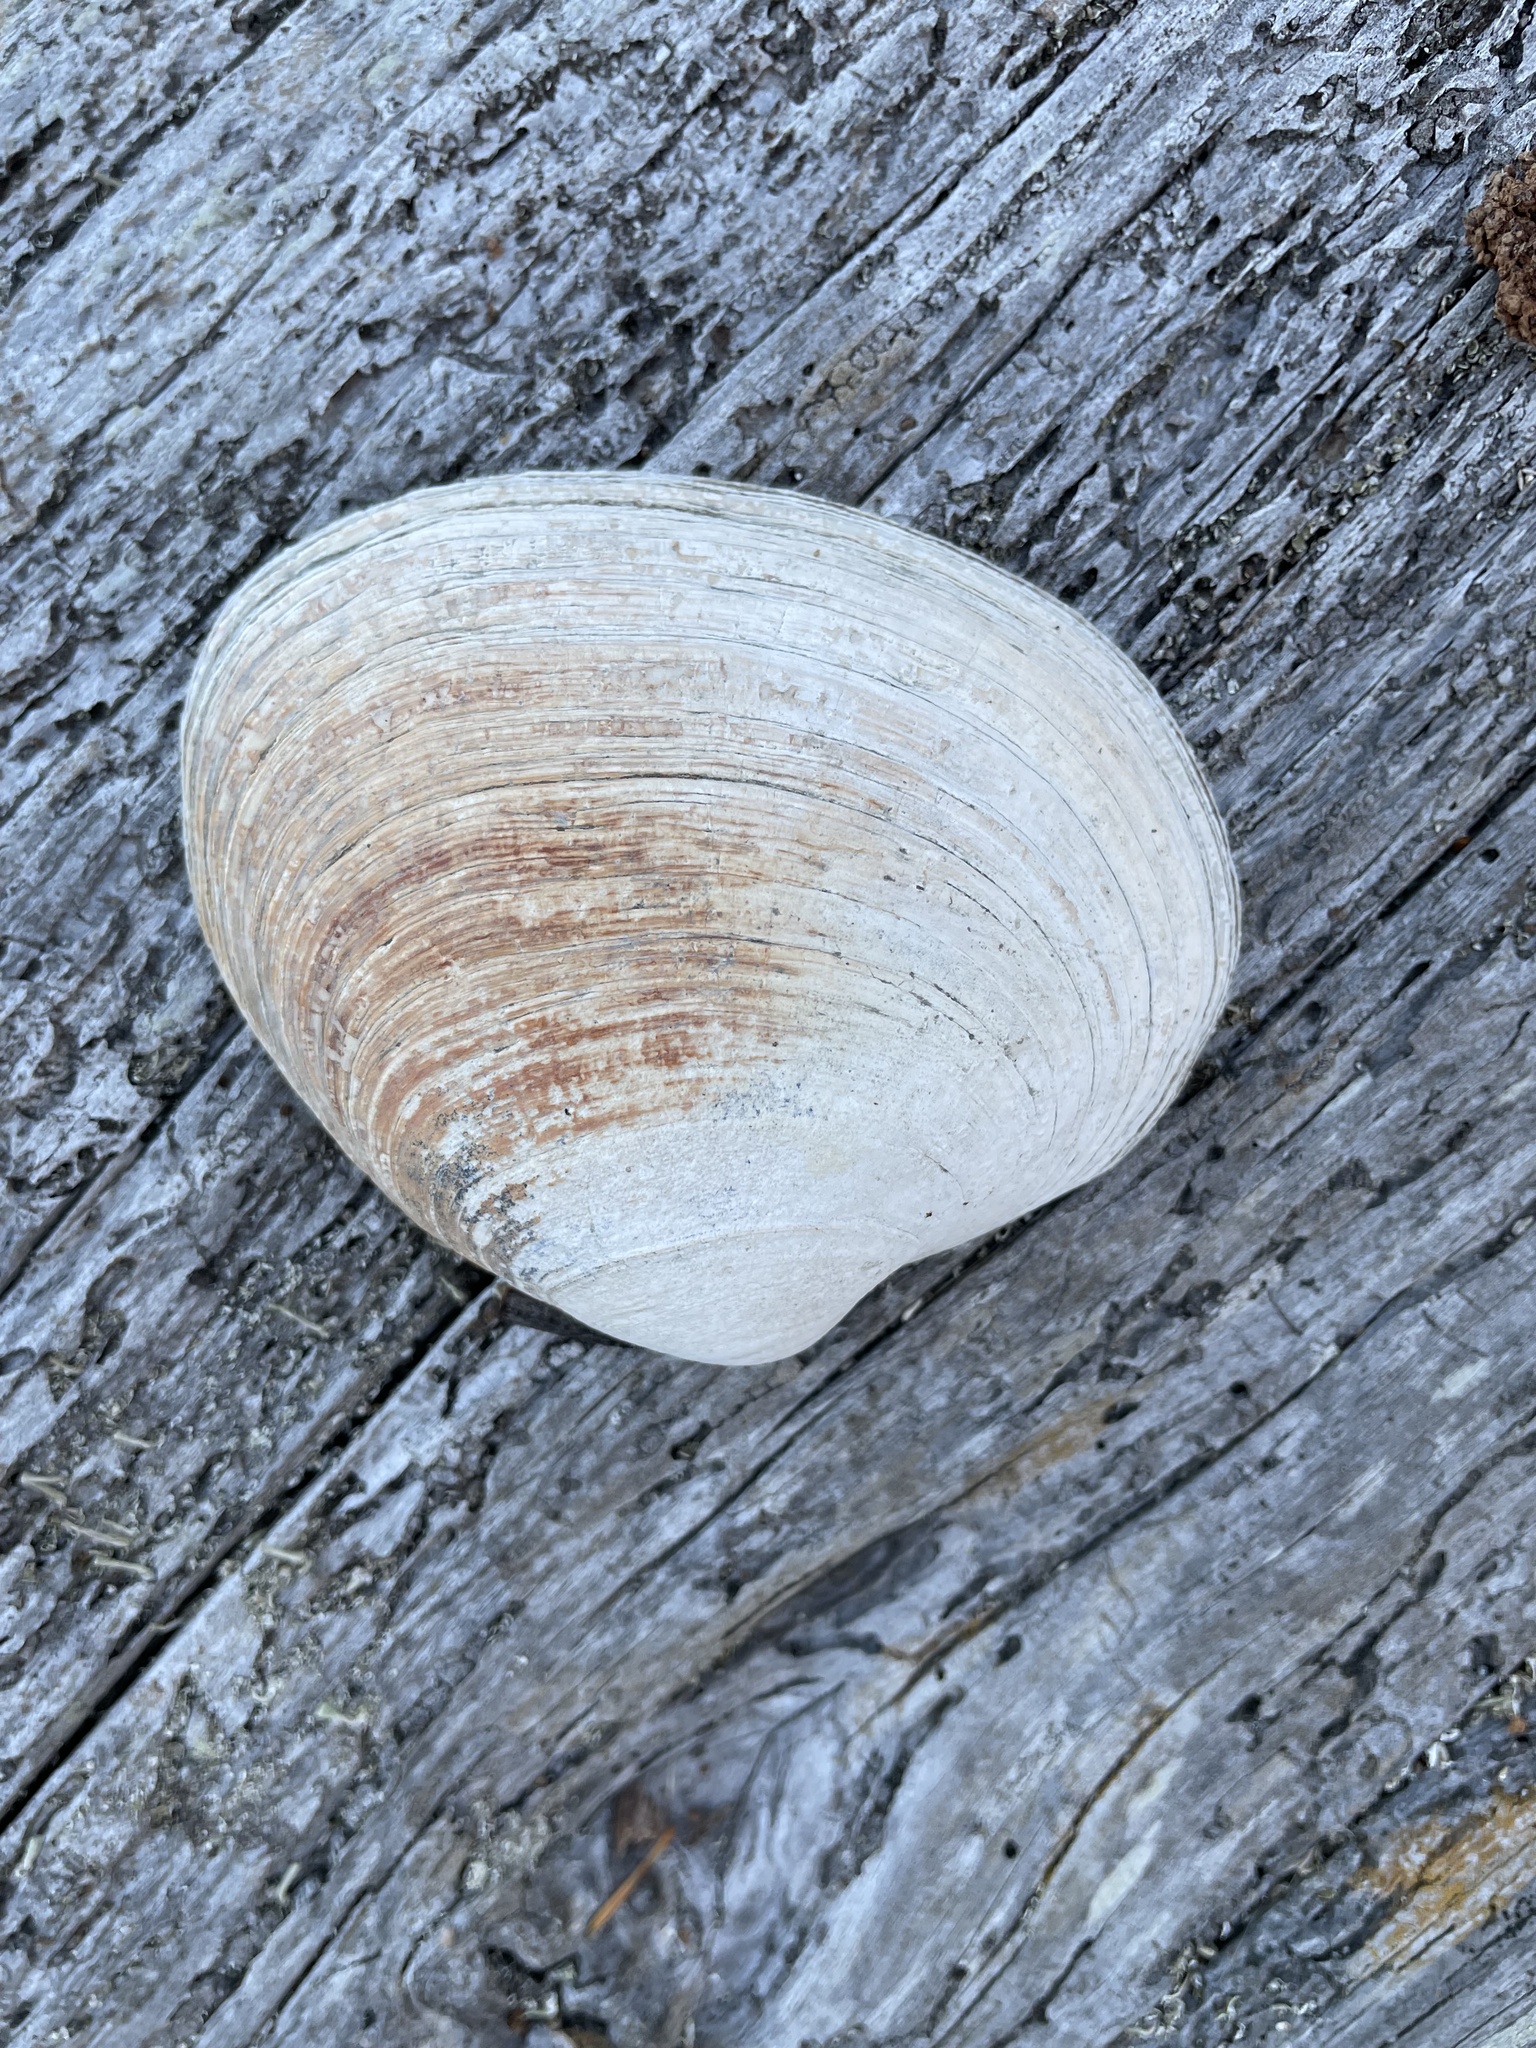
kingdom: Animalia
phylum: Mollusca
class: Bivalvia
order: Venerida
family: Veneridae
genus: Saxidomus
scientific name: Saxidomus gigantea
